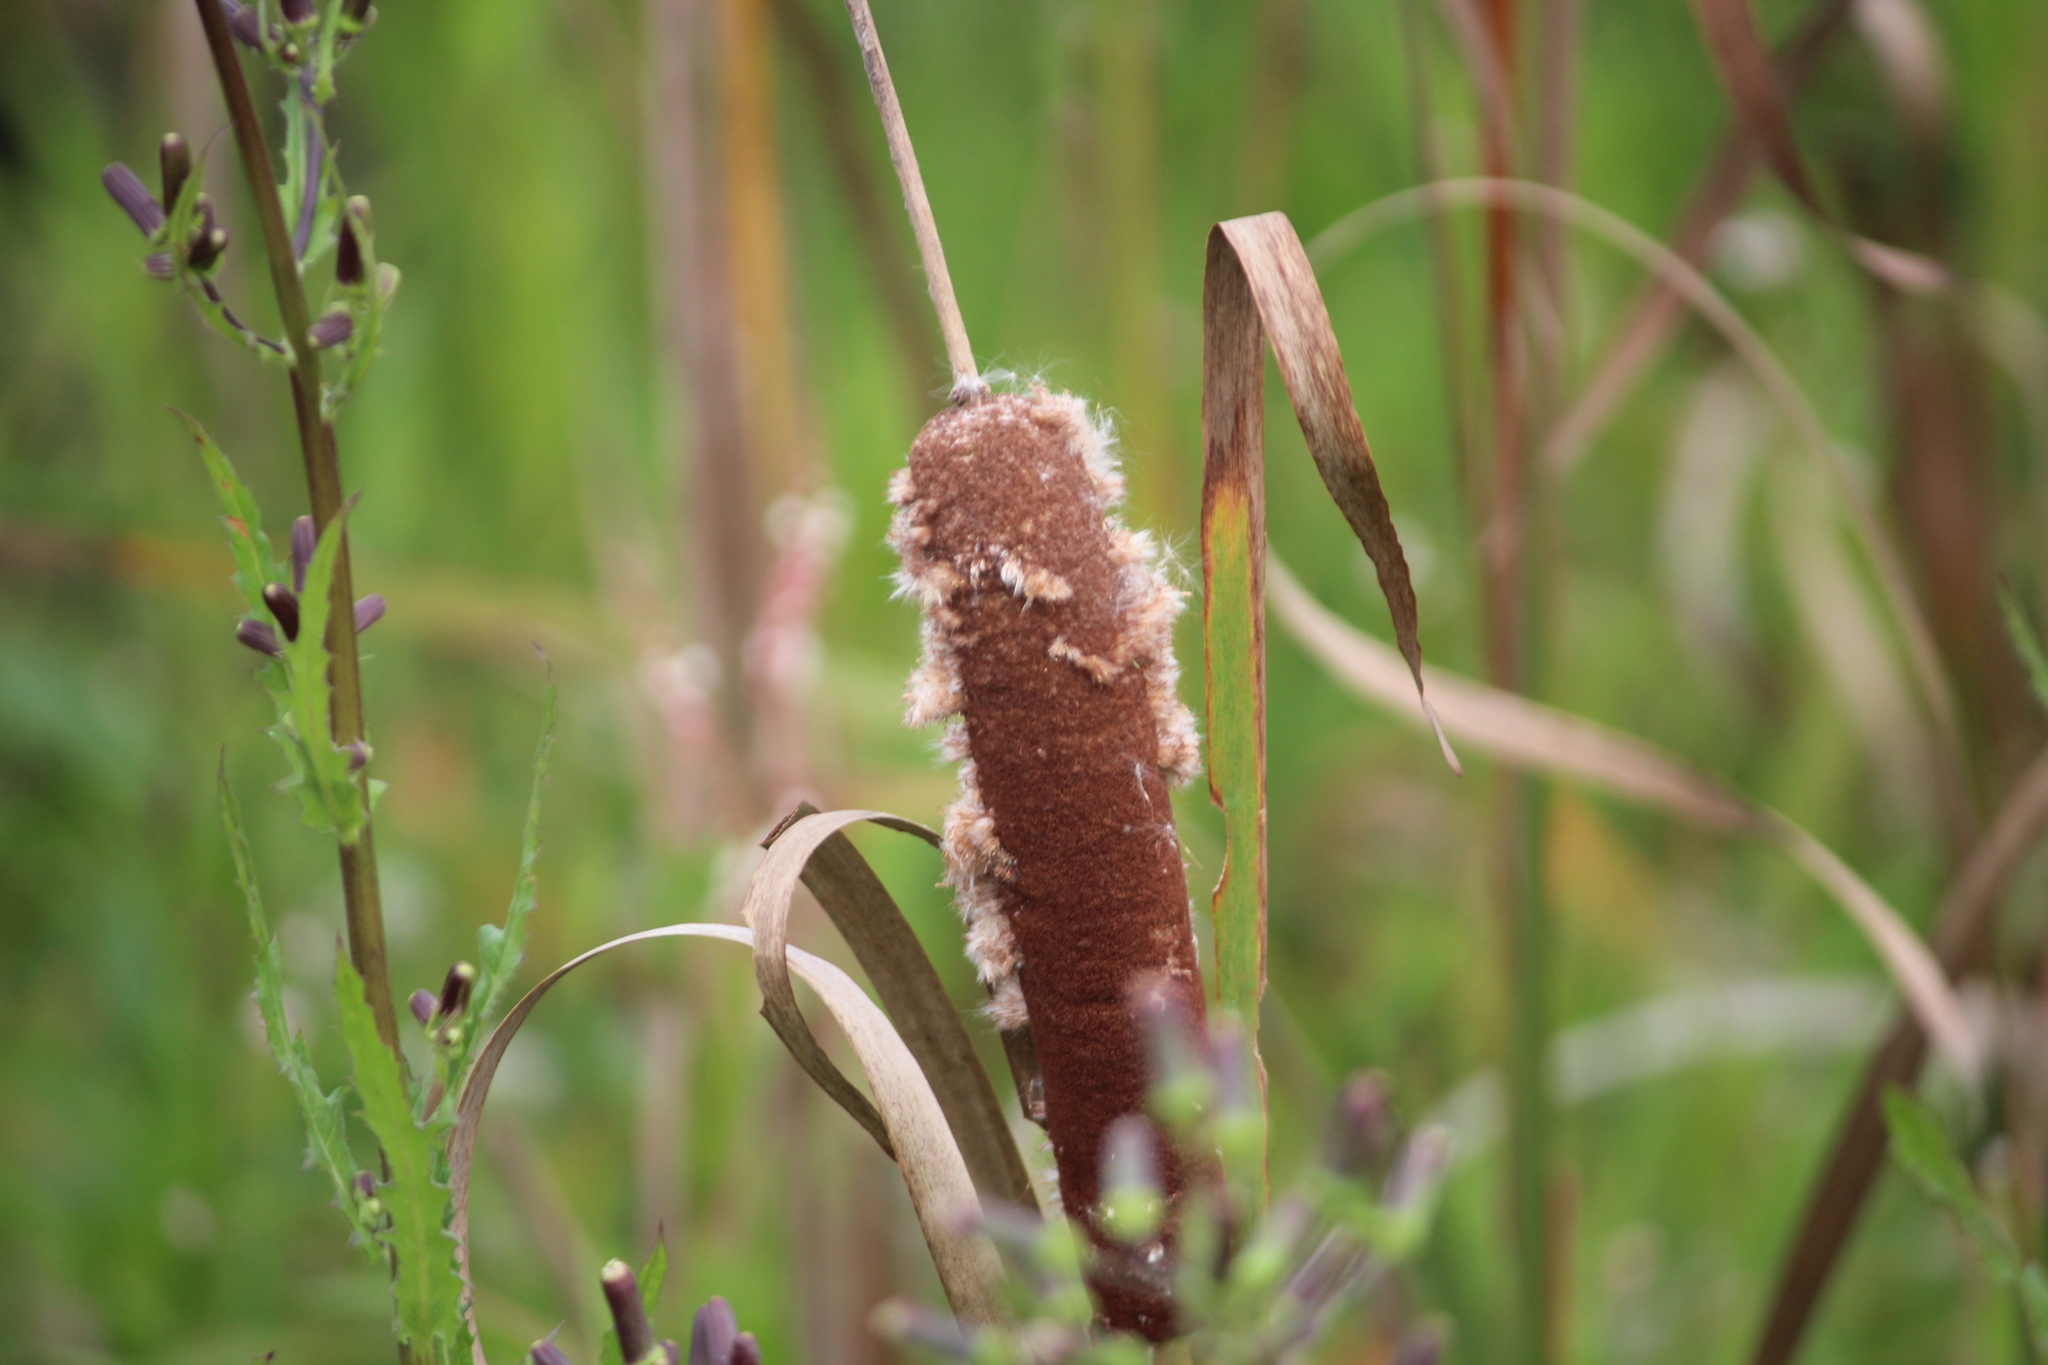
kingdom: Plantae
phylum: Tracheophyta
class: Liliopsida
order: Poales
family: Typhaceae
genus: Typha
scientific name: Typha latifolia
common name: Broadleaf cattail
